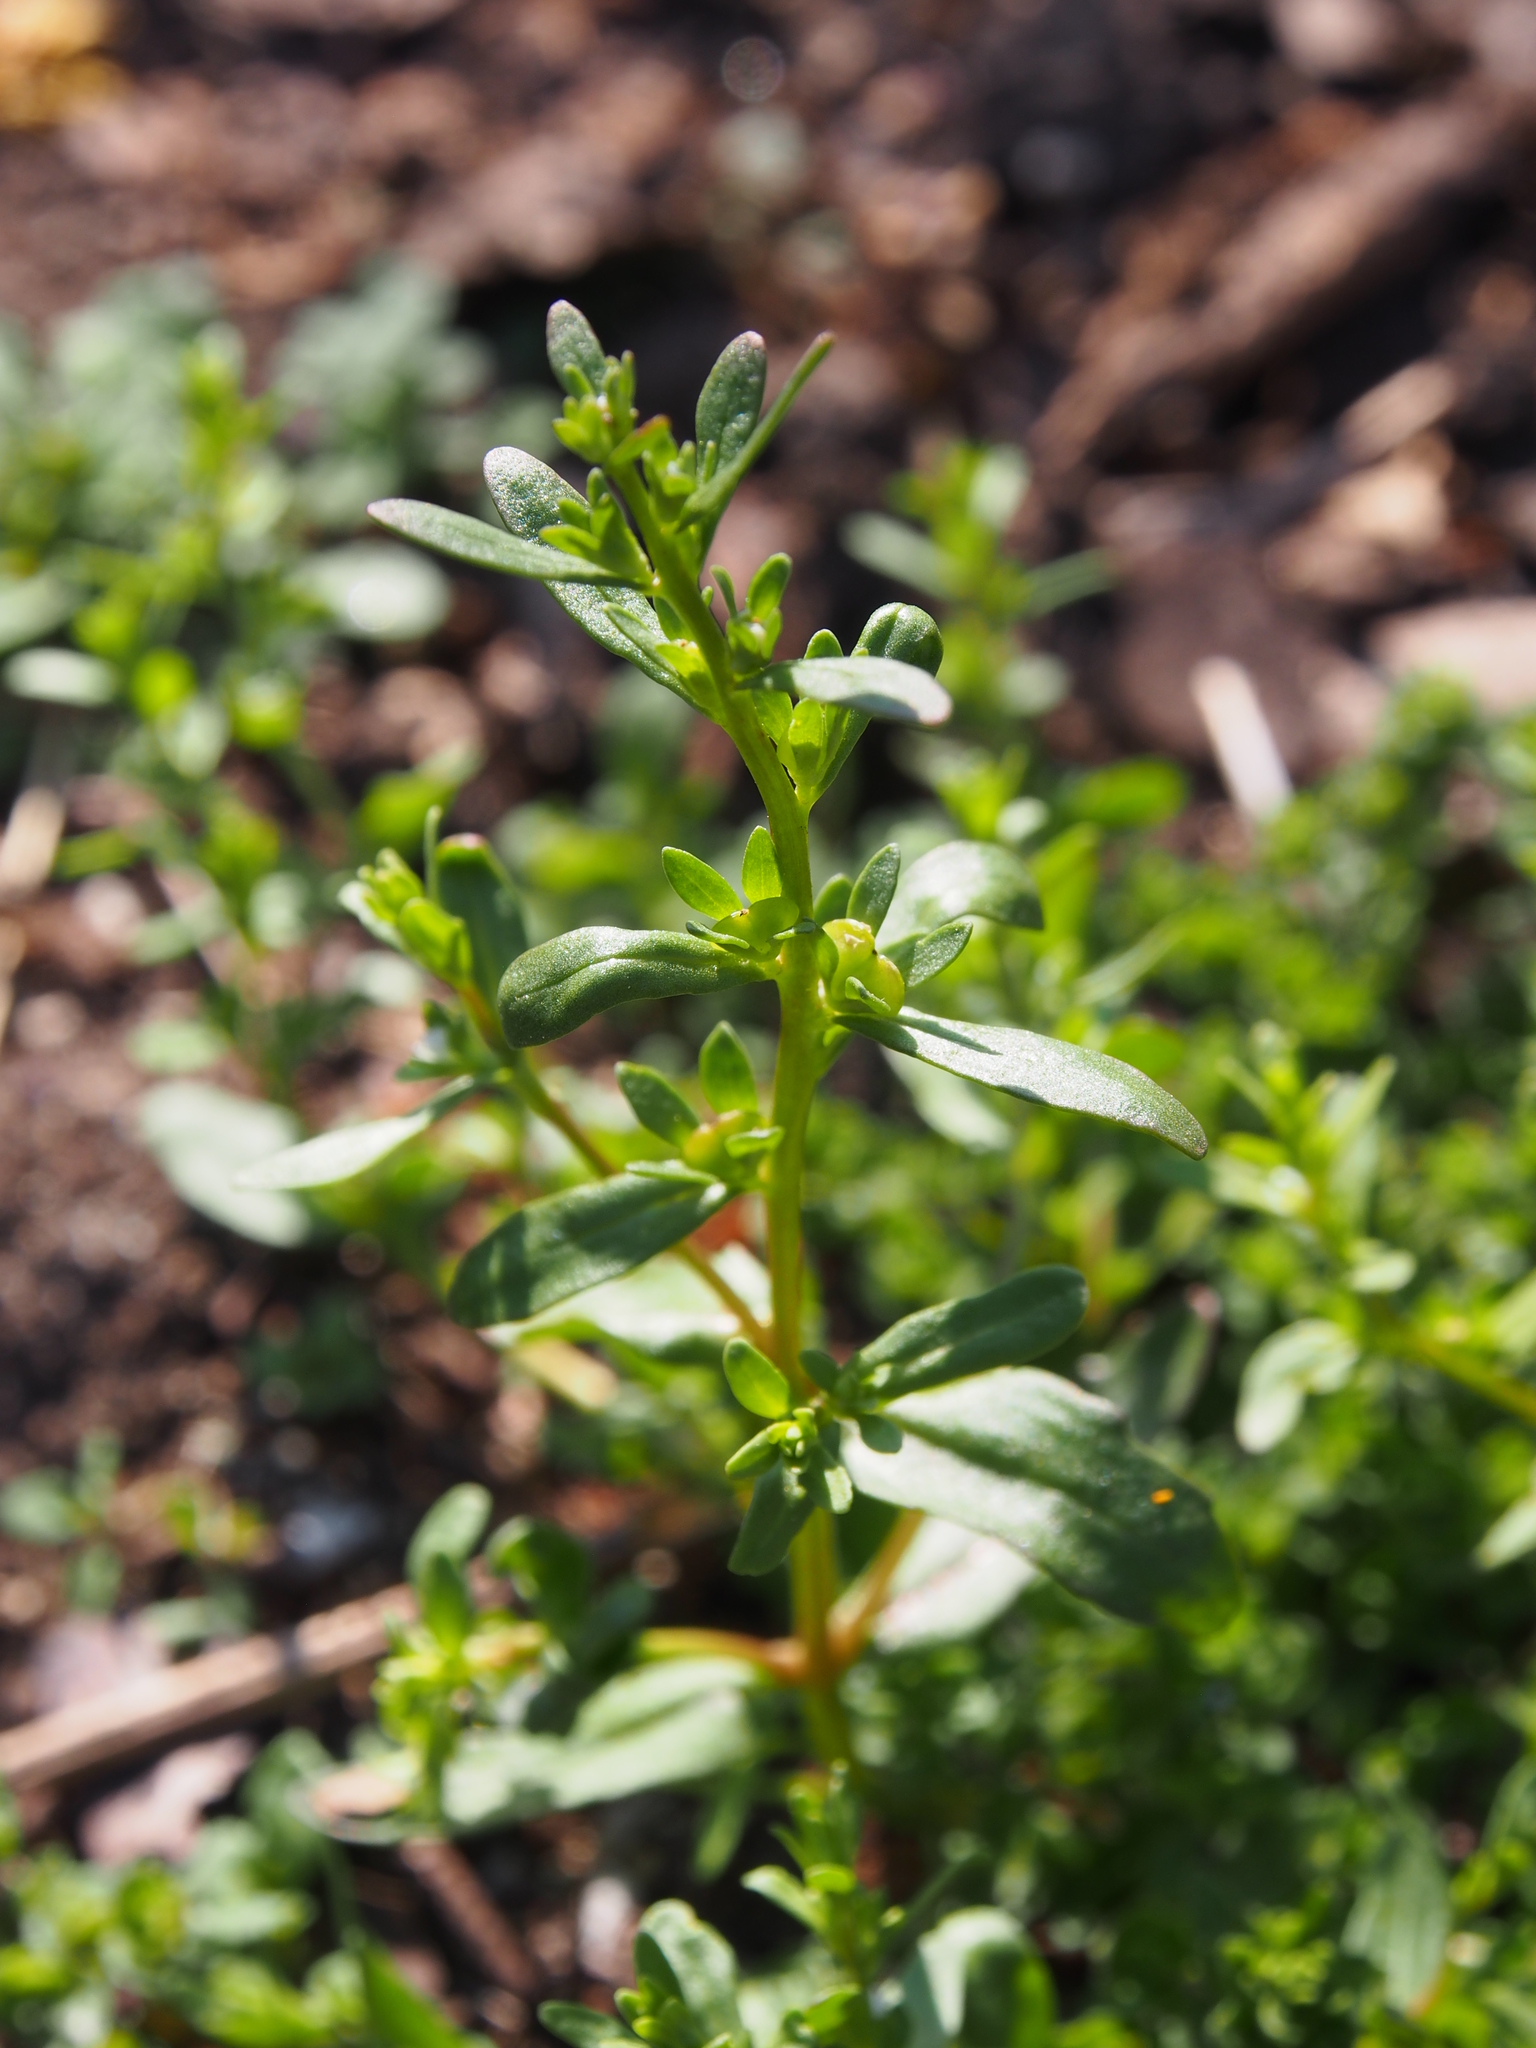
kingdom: Plantae
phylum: Tracheophyta
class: Magnoliopsida
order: Lamiales
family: Plantaginaceae
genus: Veronica
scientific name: Veronica peregrina
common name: Neckweed
